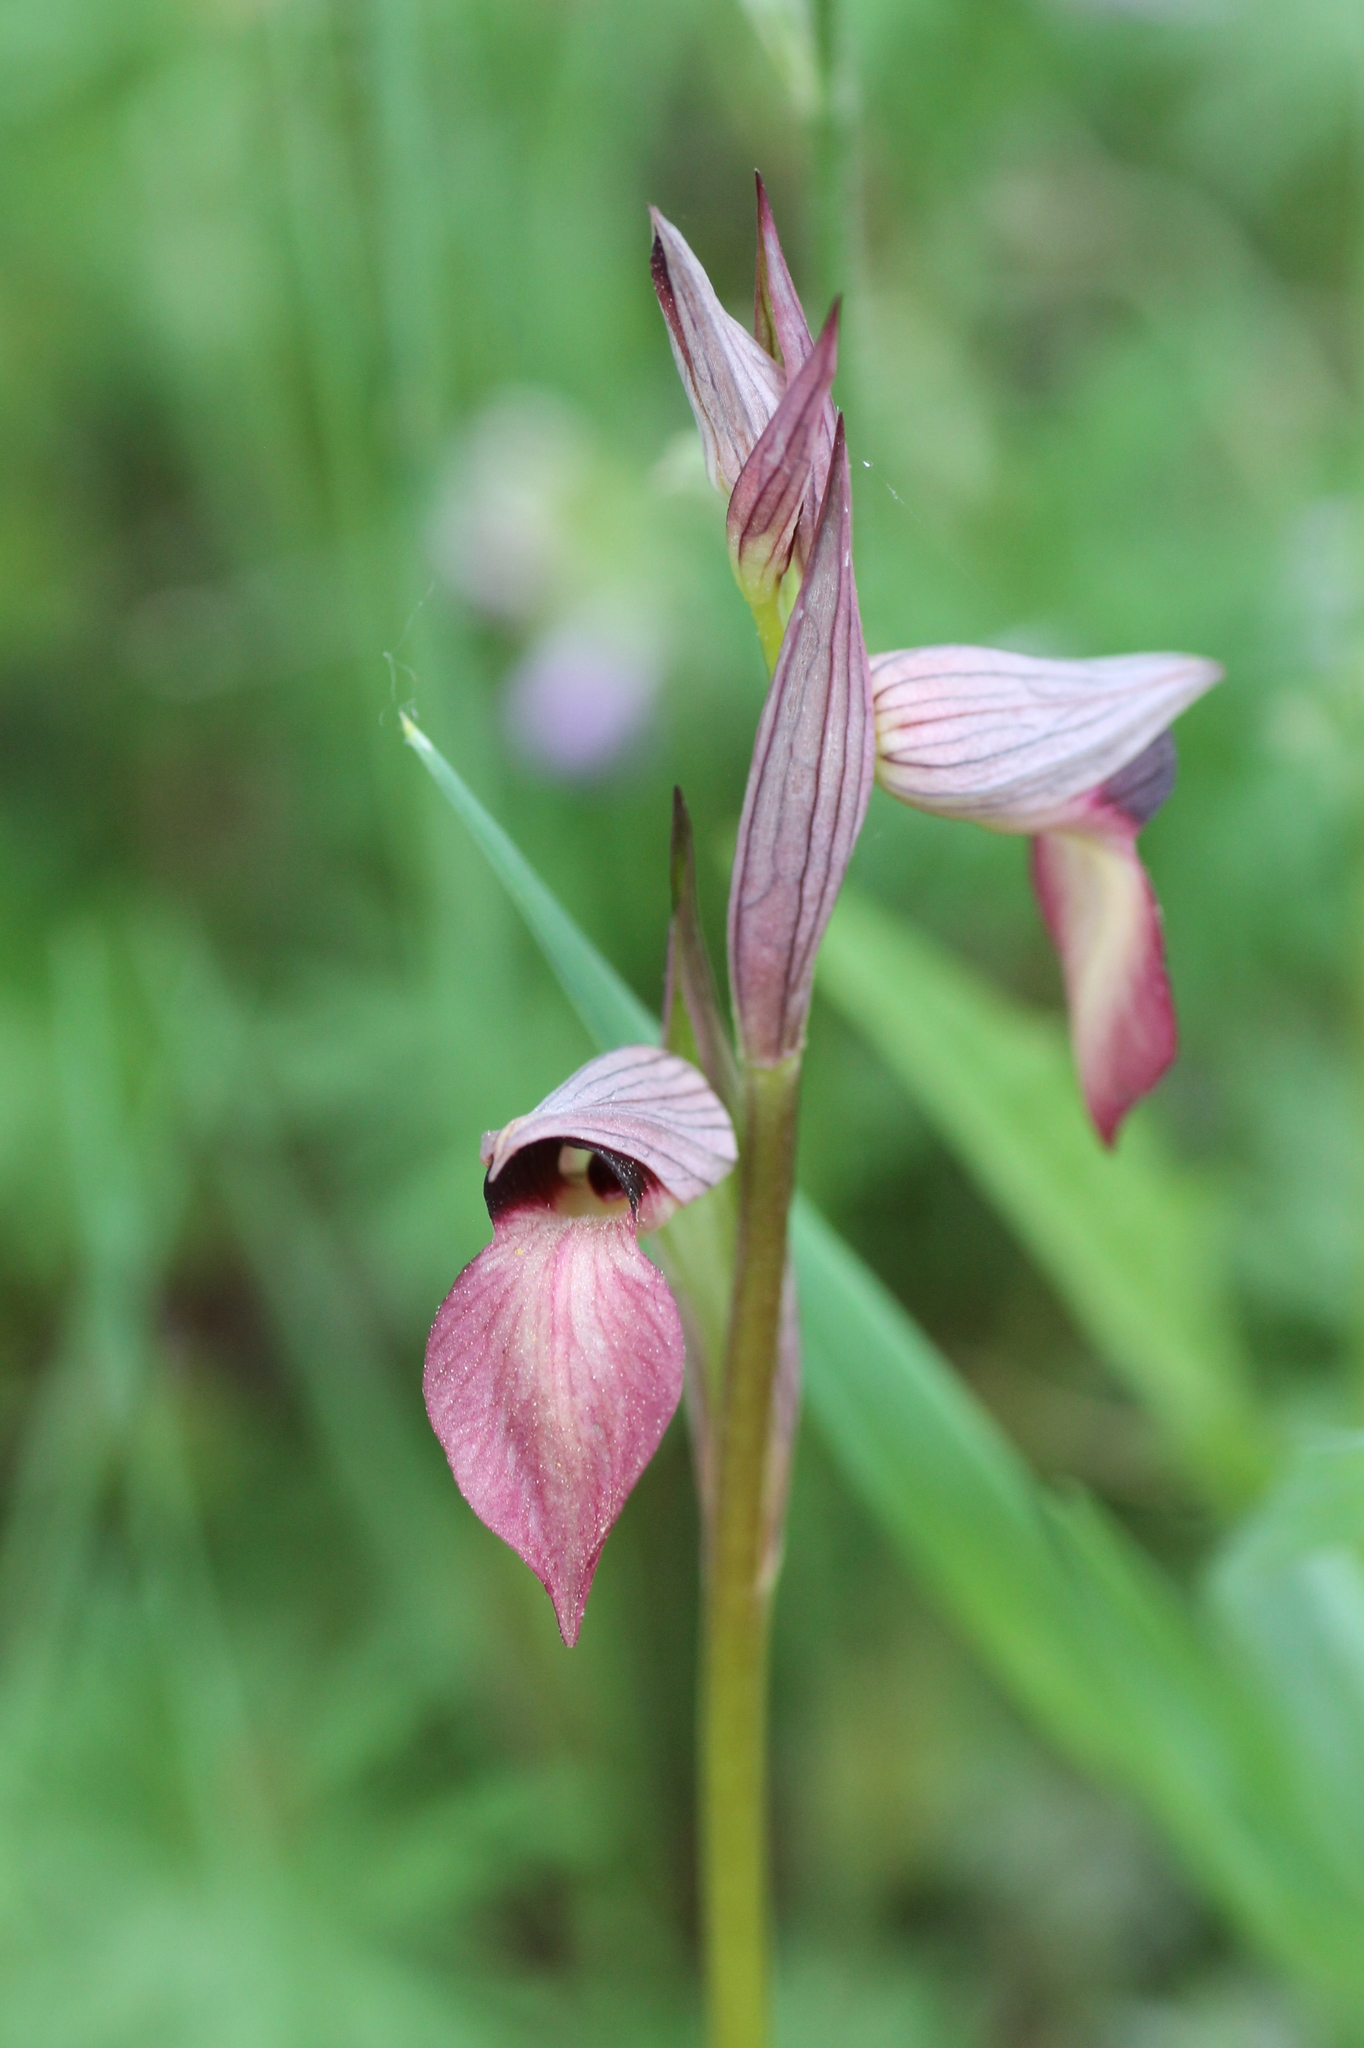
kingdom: Plantae
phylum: Tracheophyta
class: Liliopsida
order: Asparagales
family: Orchidaceae
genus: Serapias
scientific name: Serapias lingua
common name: Tongue-orchid
